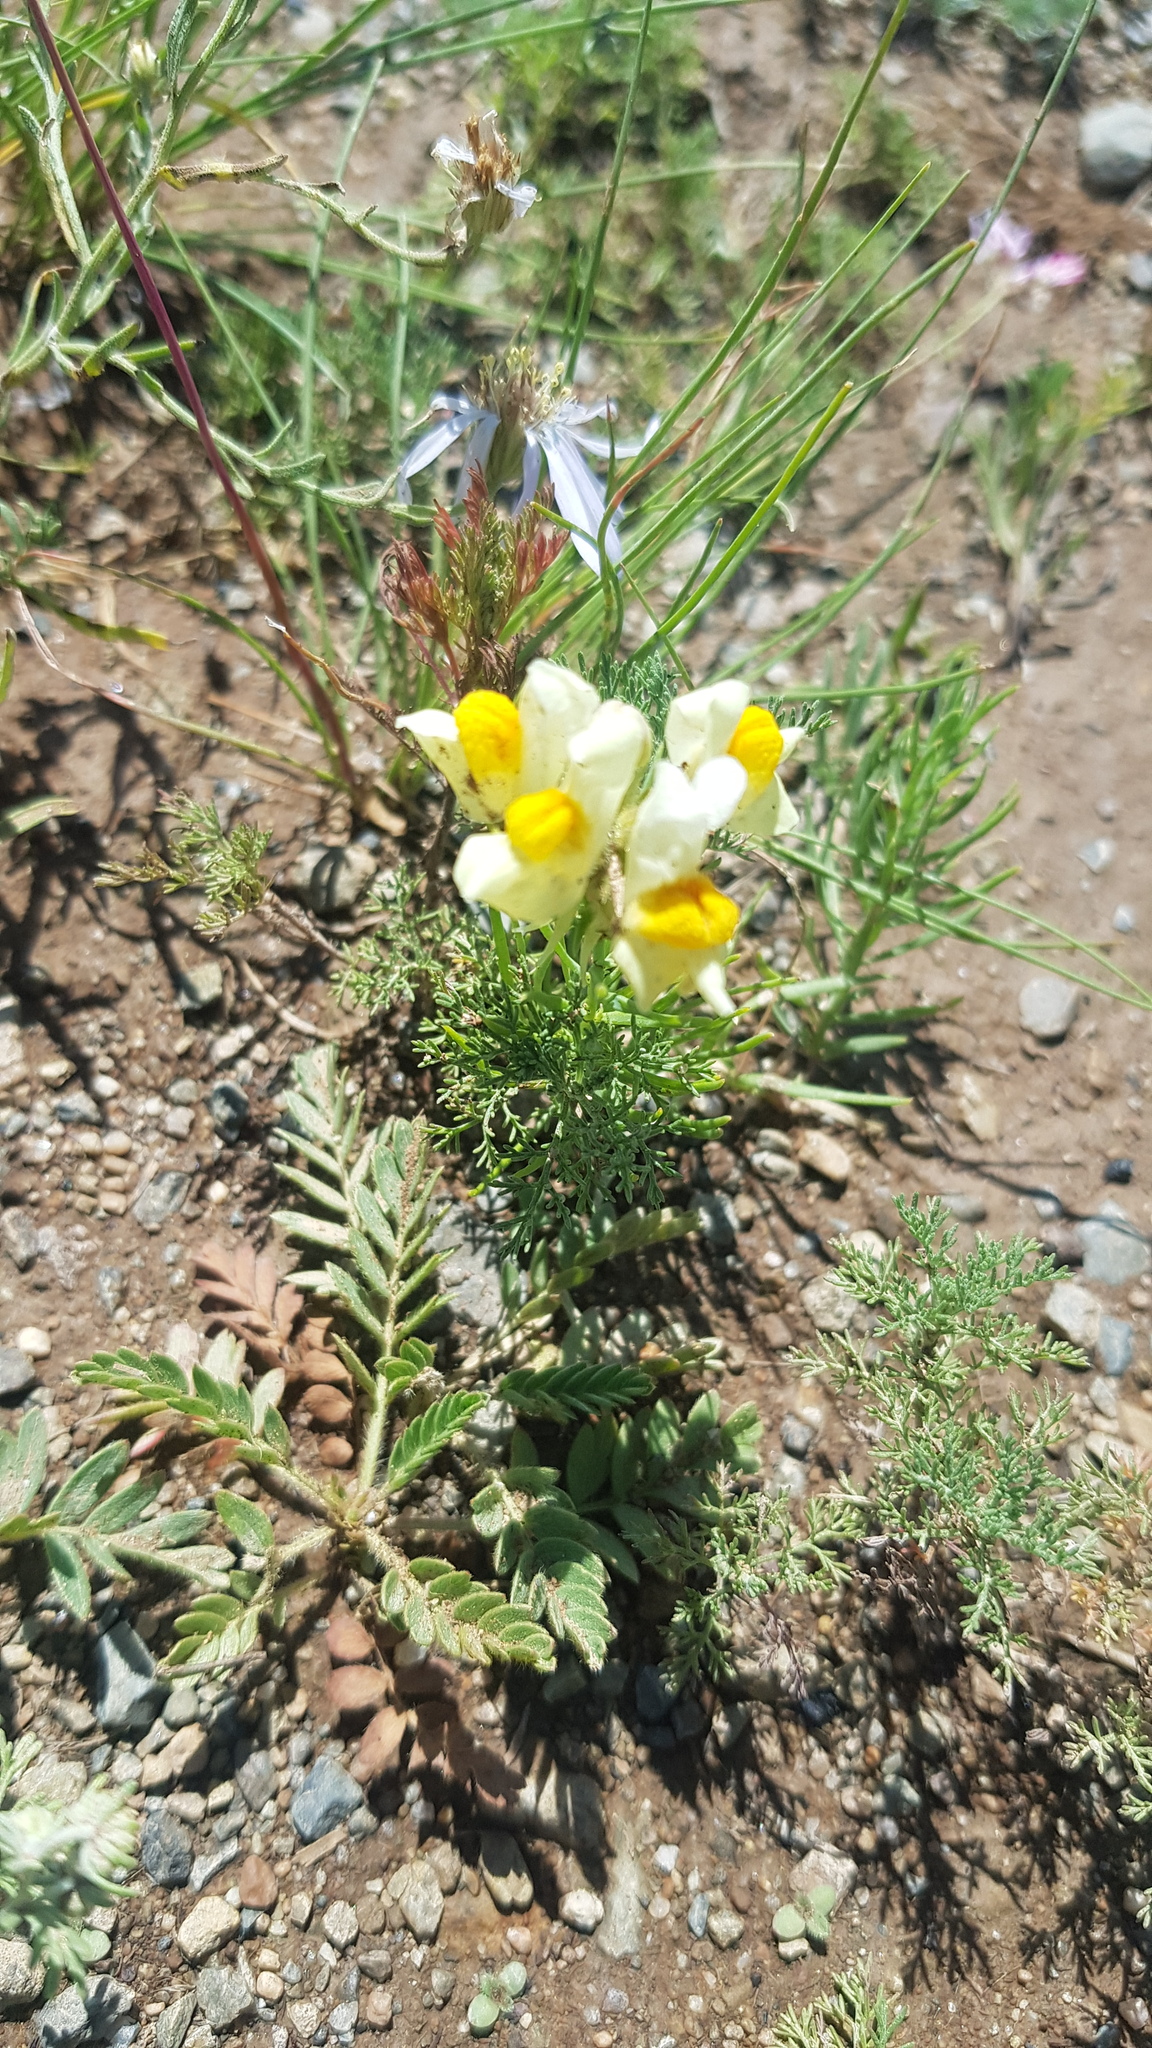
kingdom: Plantae
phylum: Tracheophyta
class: Magnoliopsida
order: Lamiales
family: Plantaginaceae
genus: Linaria
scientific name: Linaria vulgaris
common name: Butter and eggs
